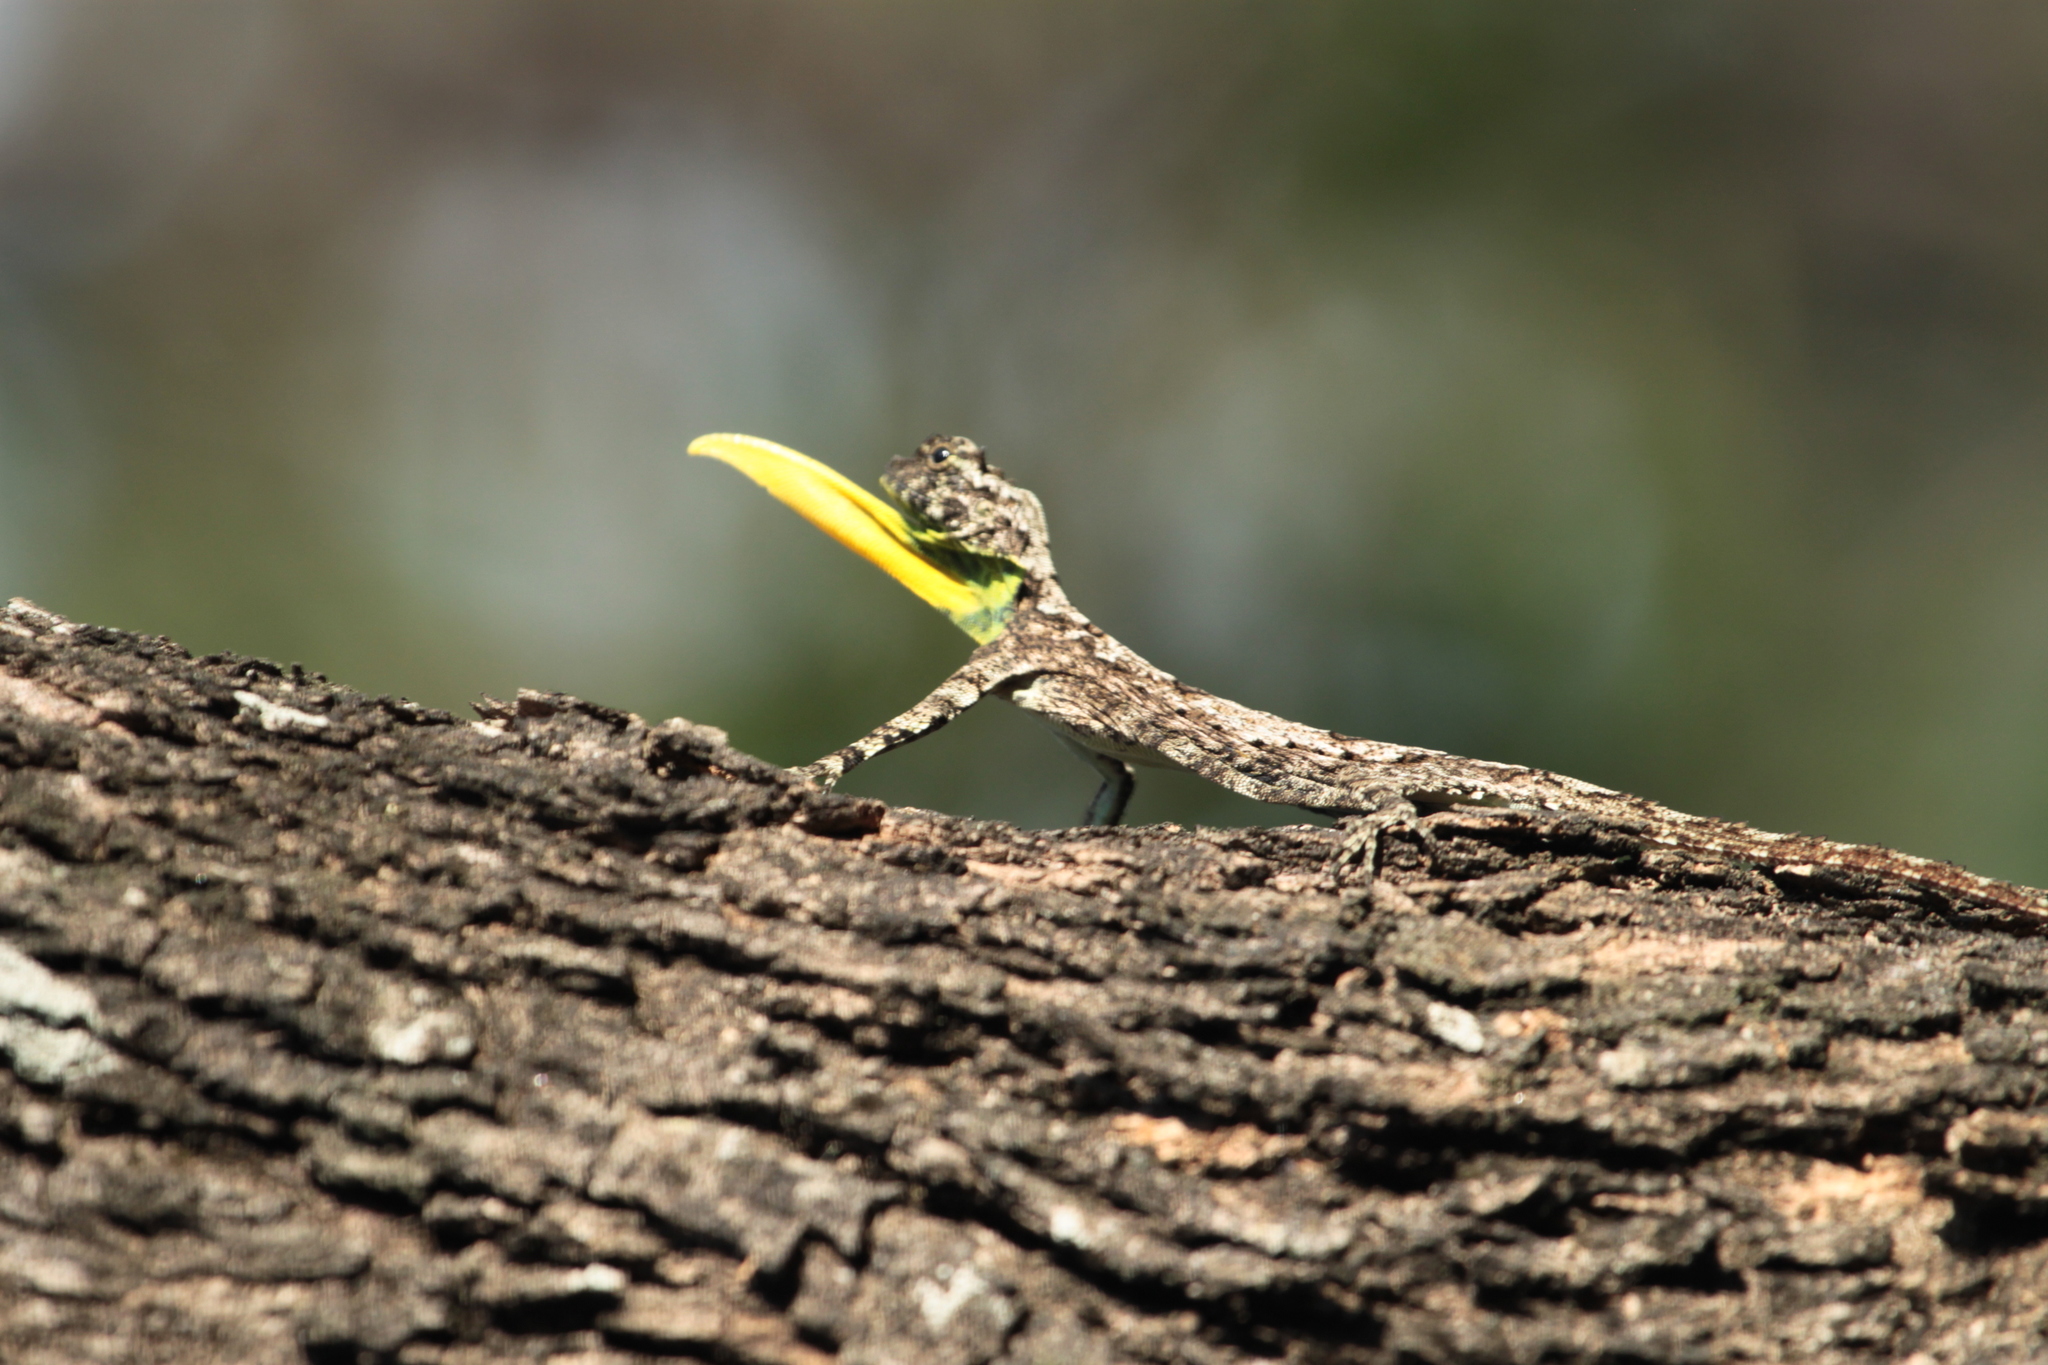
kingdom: Animalia
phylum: Chordata
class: Squamata
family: Agamidae
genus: Draco
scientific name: Draco dussumieri
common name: Southern flying lizard
